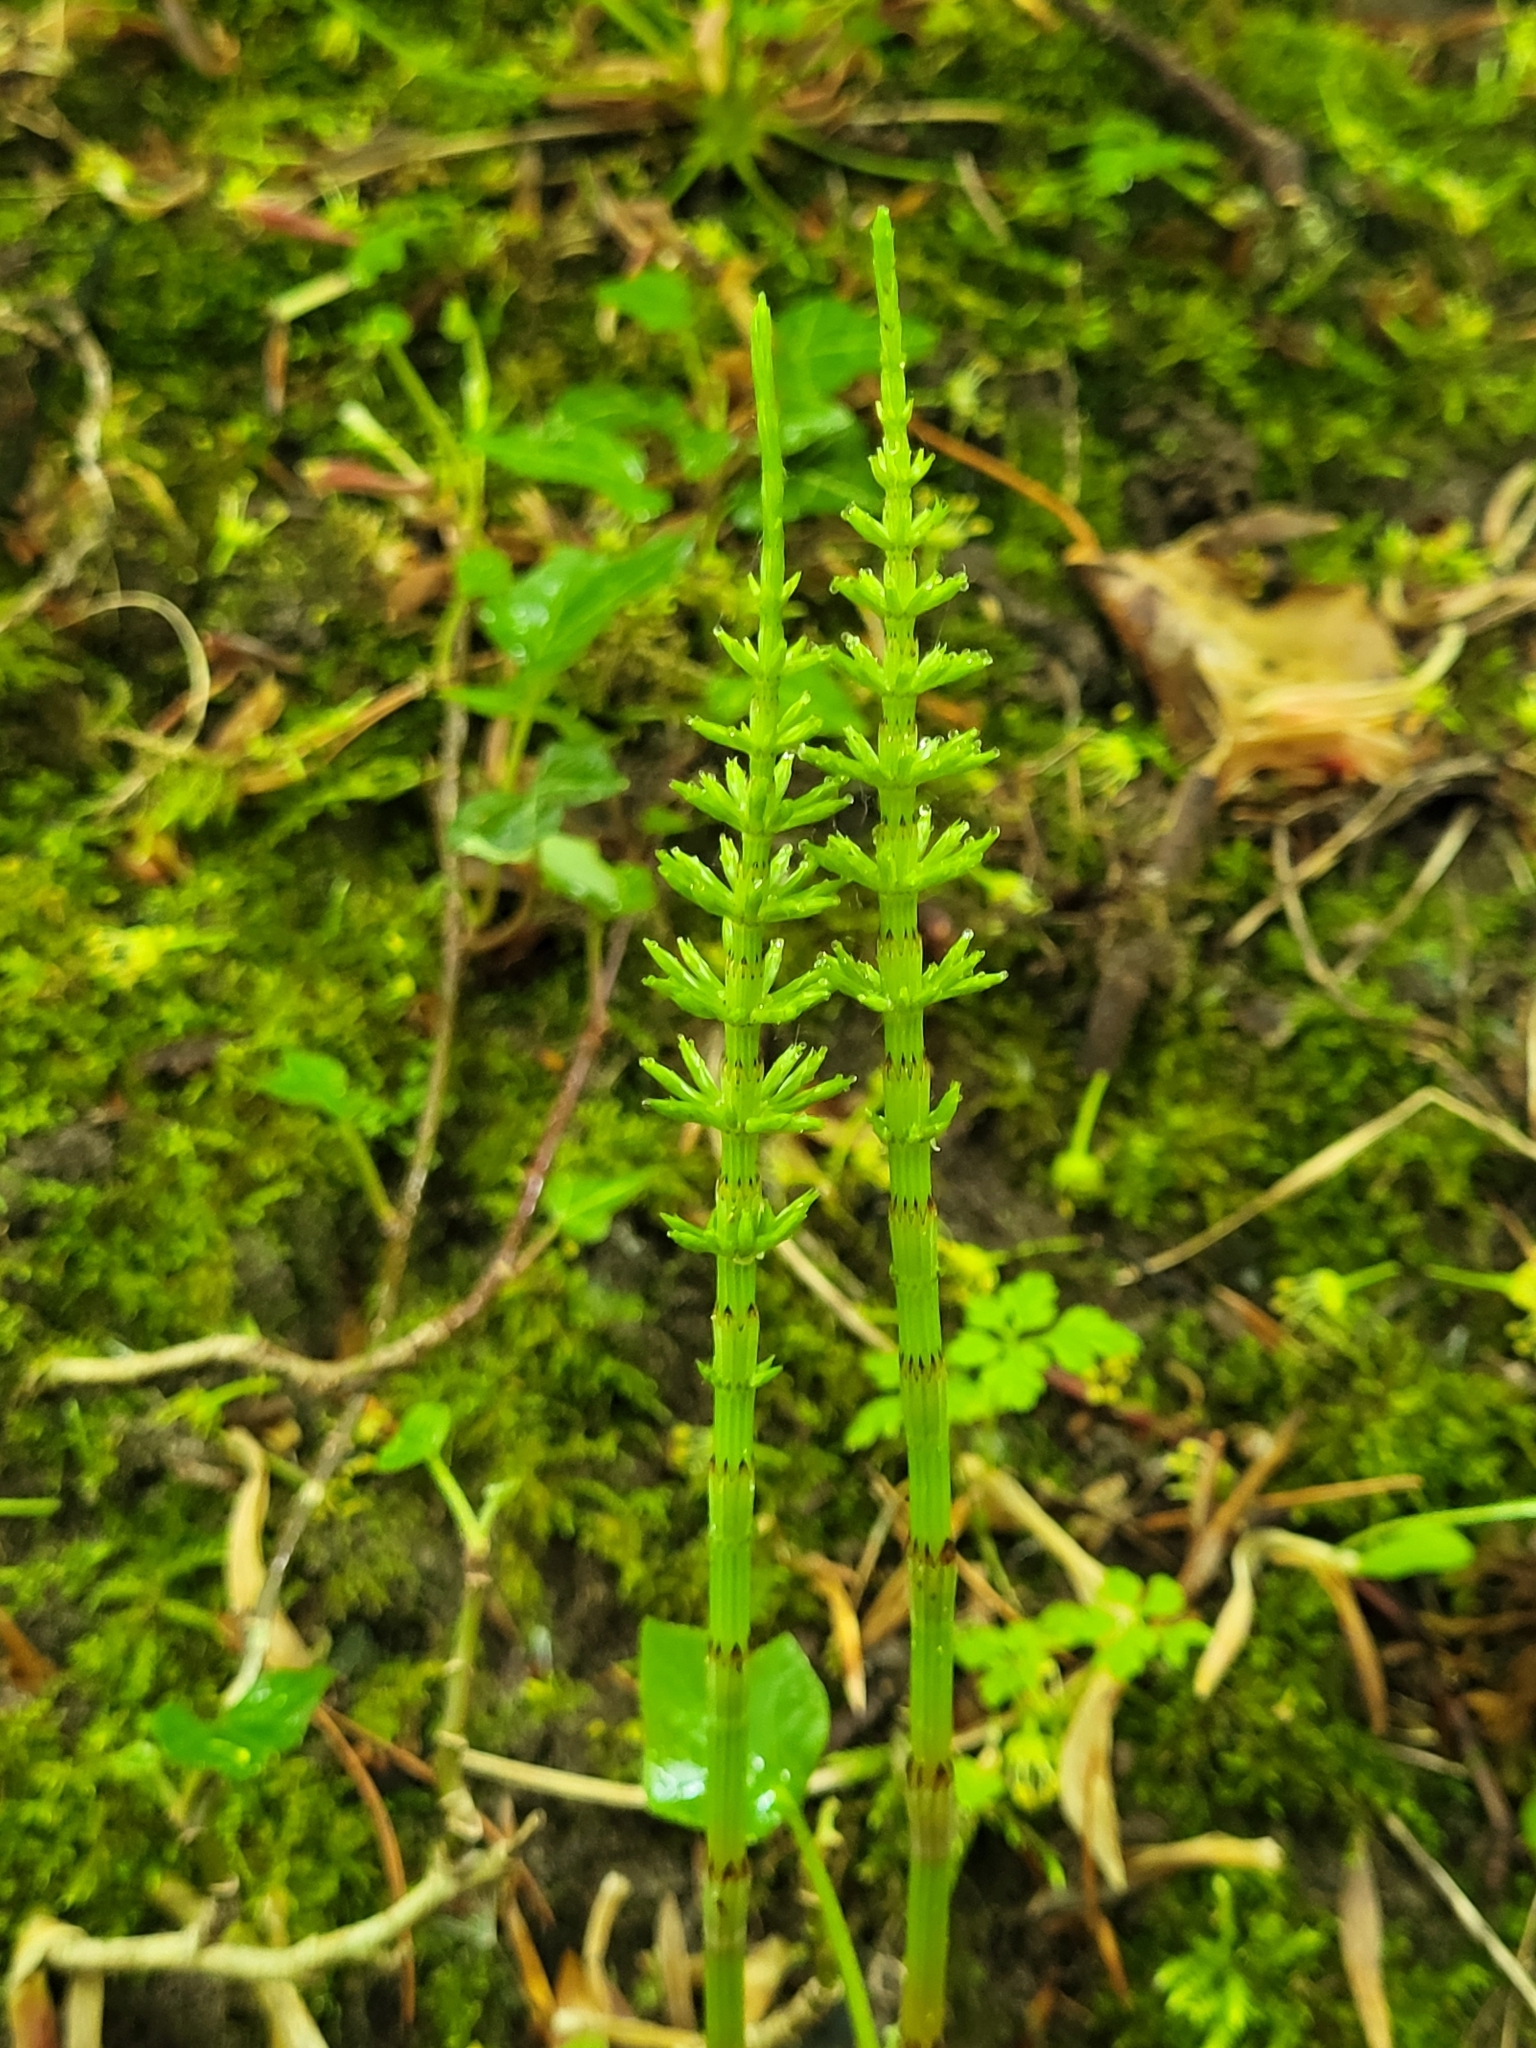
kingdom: Plantae
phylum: Tracheophyta
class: Polypodiopsida
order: Equisetales
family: Equisetaceae
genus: Equisetum
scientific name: Equisetum arvense
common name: Field horsetail
